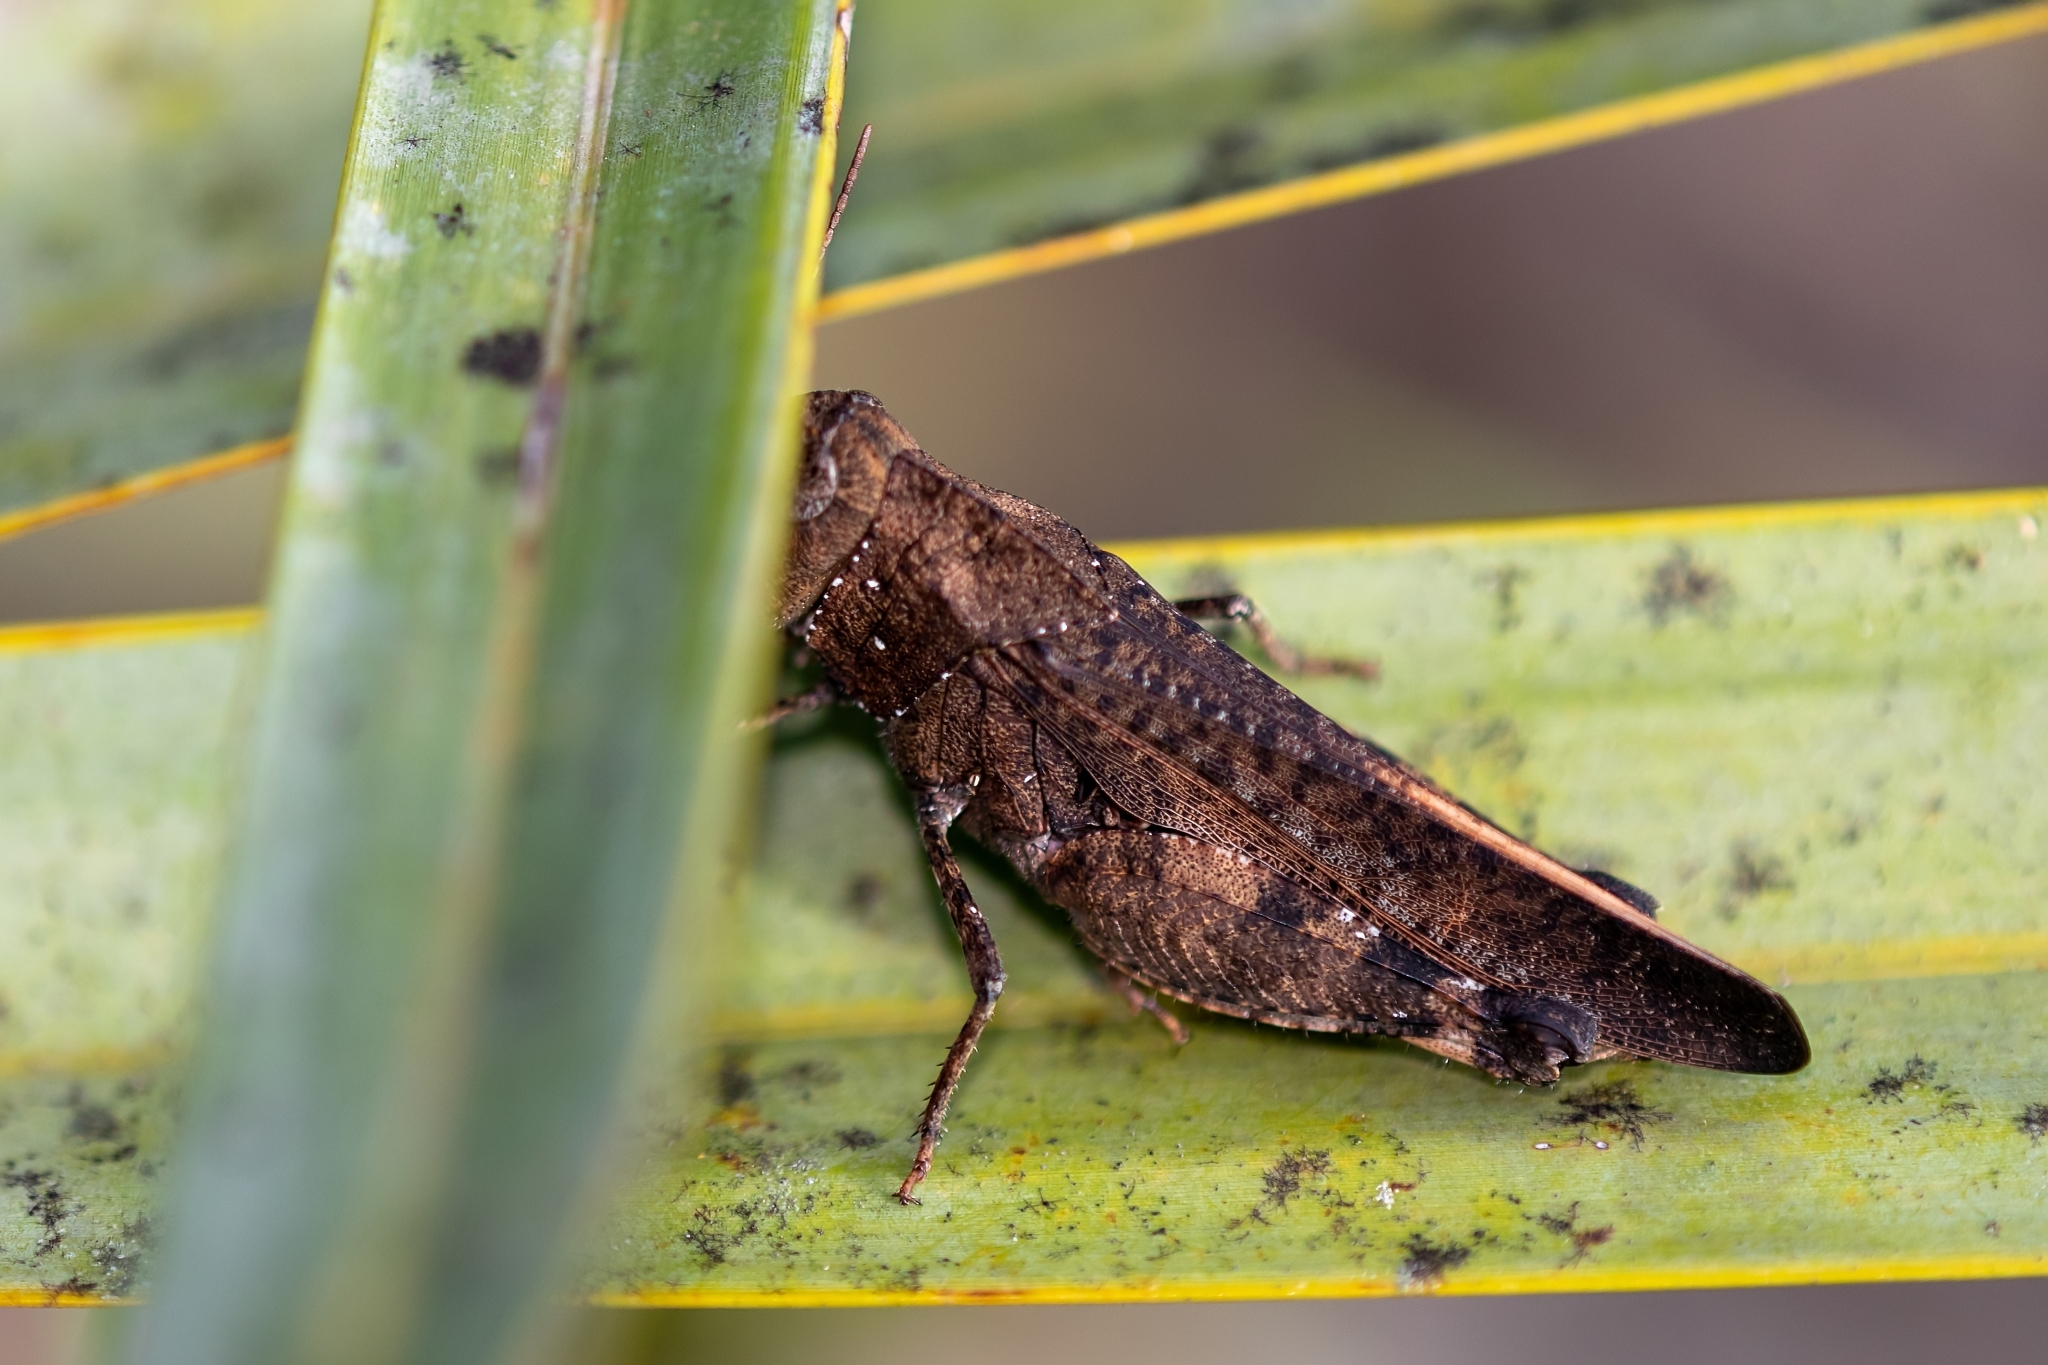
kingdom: Animalia
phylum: Arthropoda
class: Insecta
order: Orthoptera
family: Acrididae
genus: Arphia
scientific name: Arphia granulata
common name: Southern yellow-winged grasshopper
